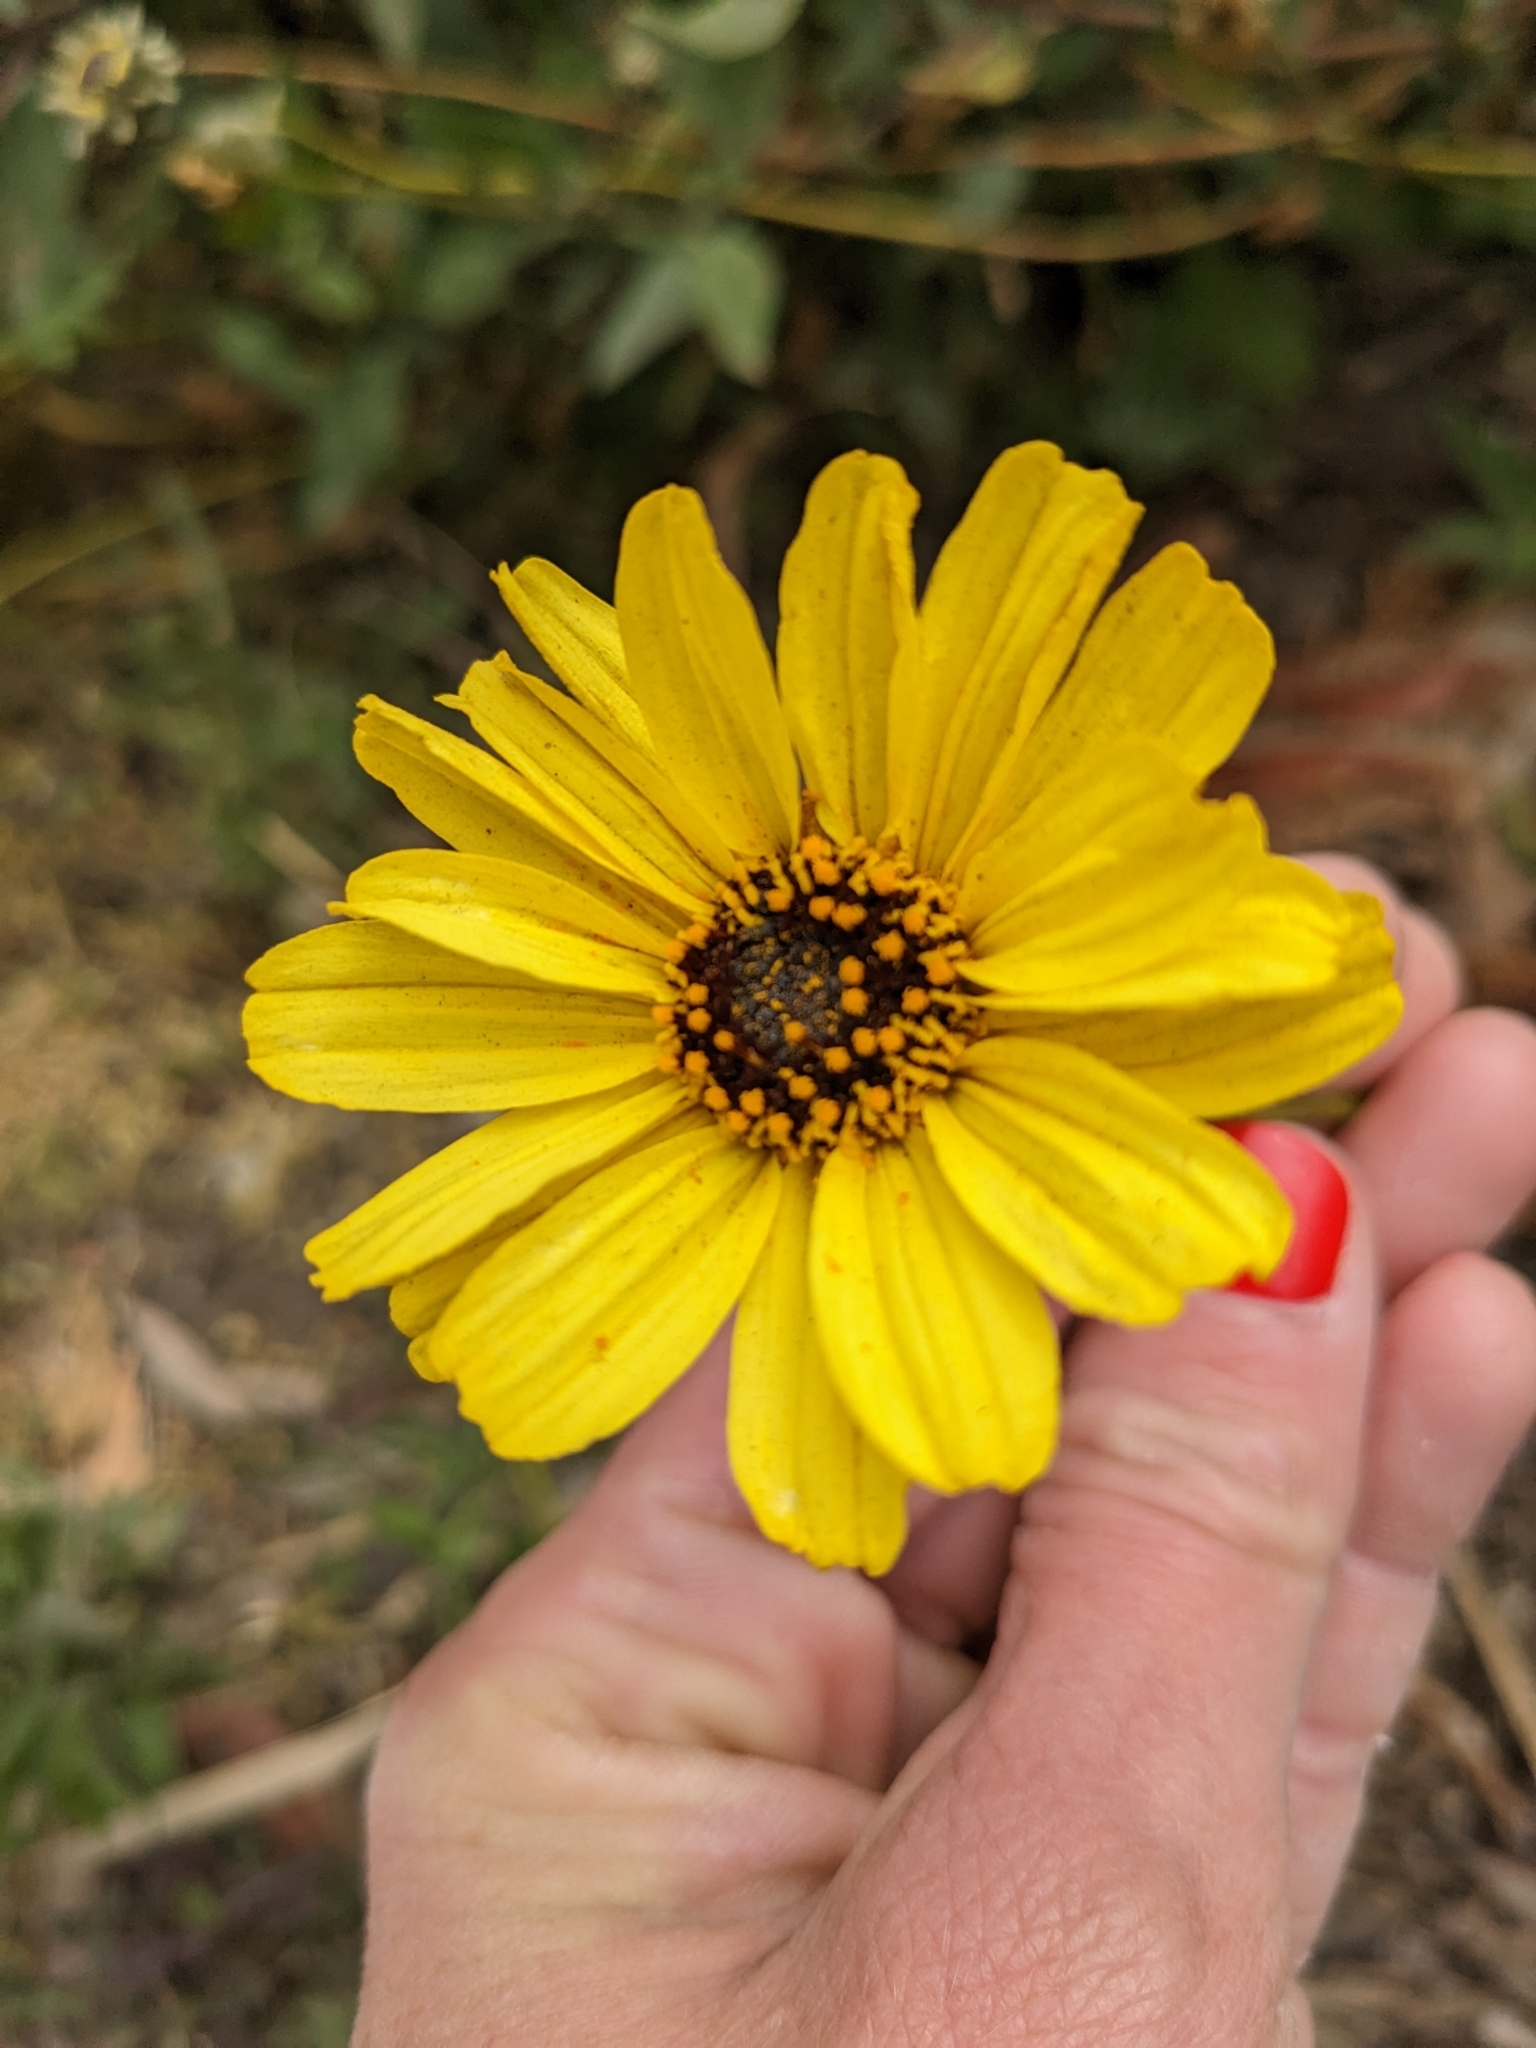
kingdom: Plantae
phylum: Tracheophyta
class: Magnoliopsida
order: Asterales
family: Asteraceae
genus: Encelia
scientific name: Encelia californica
